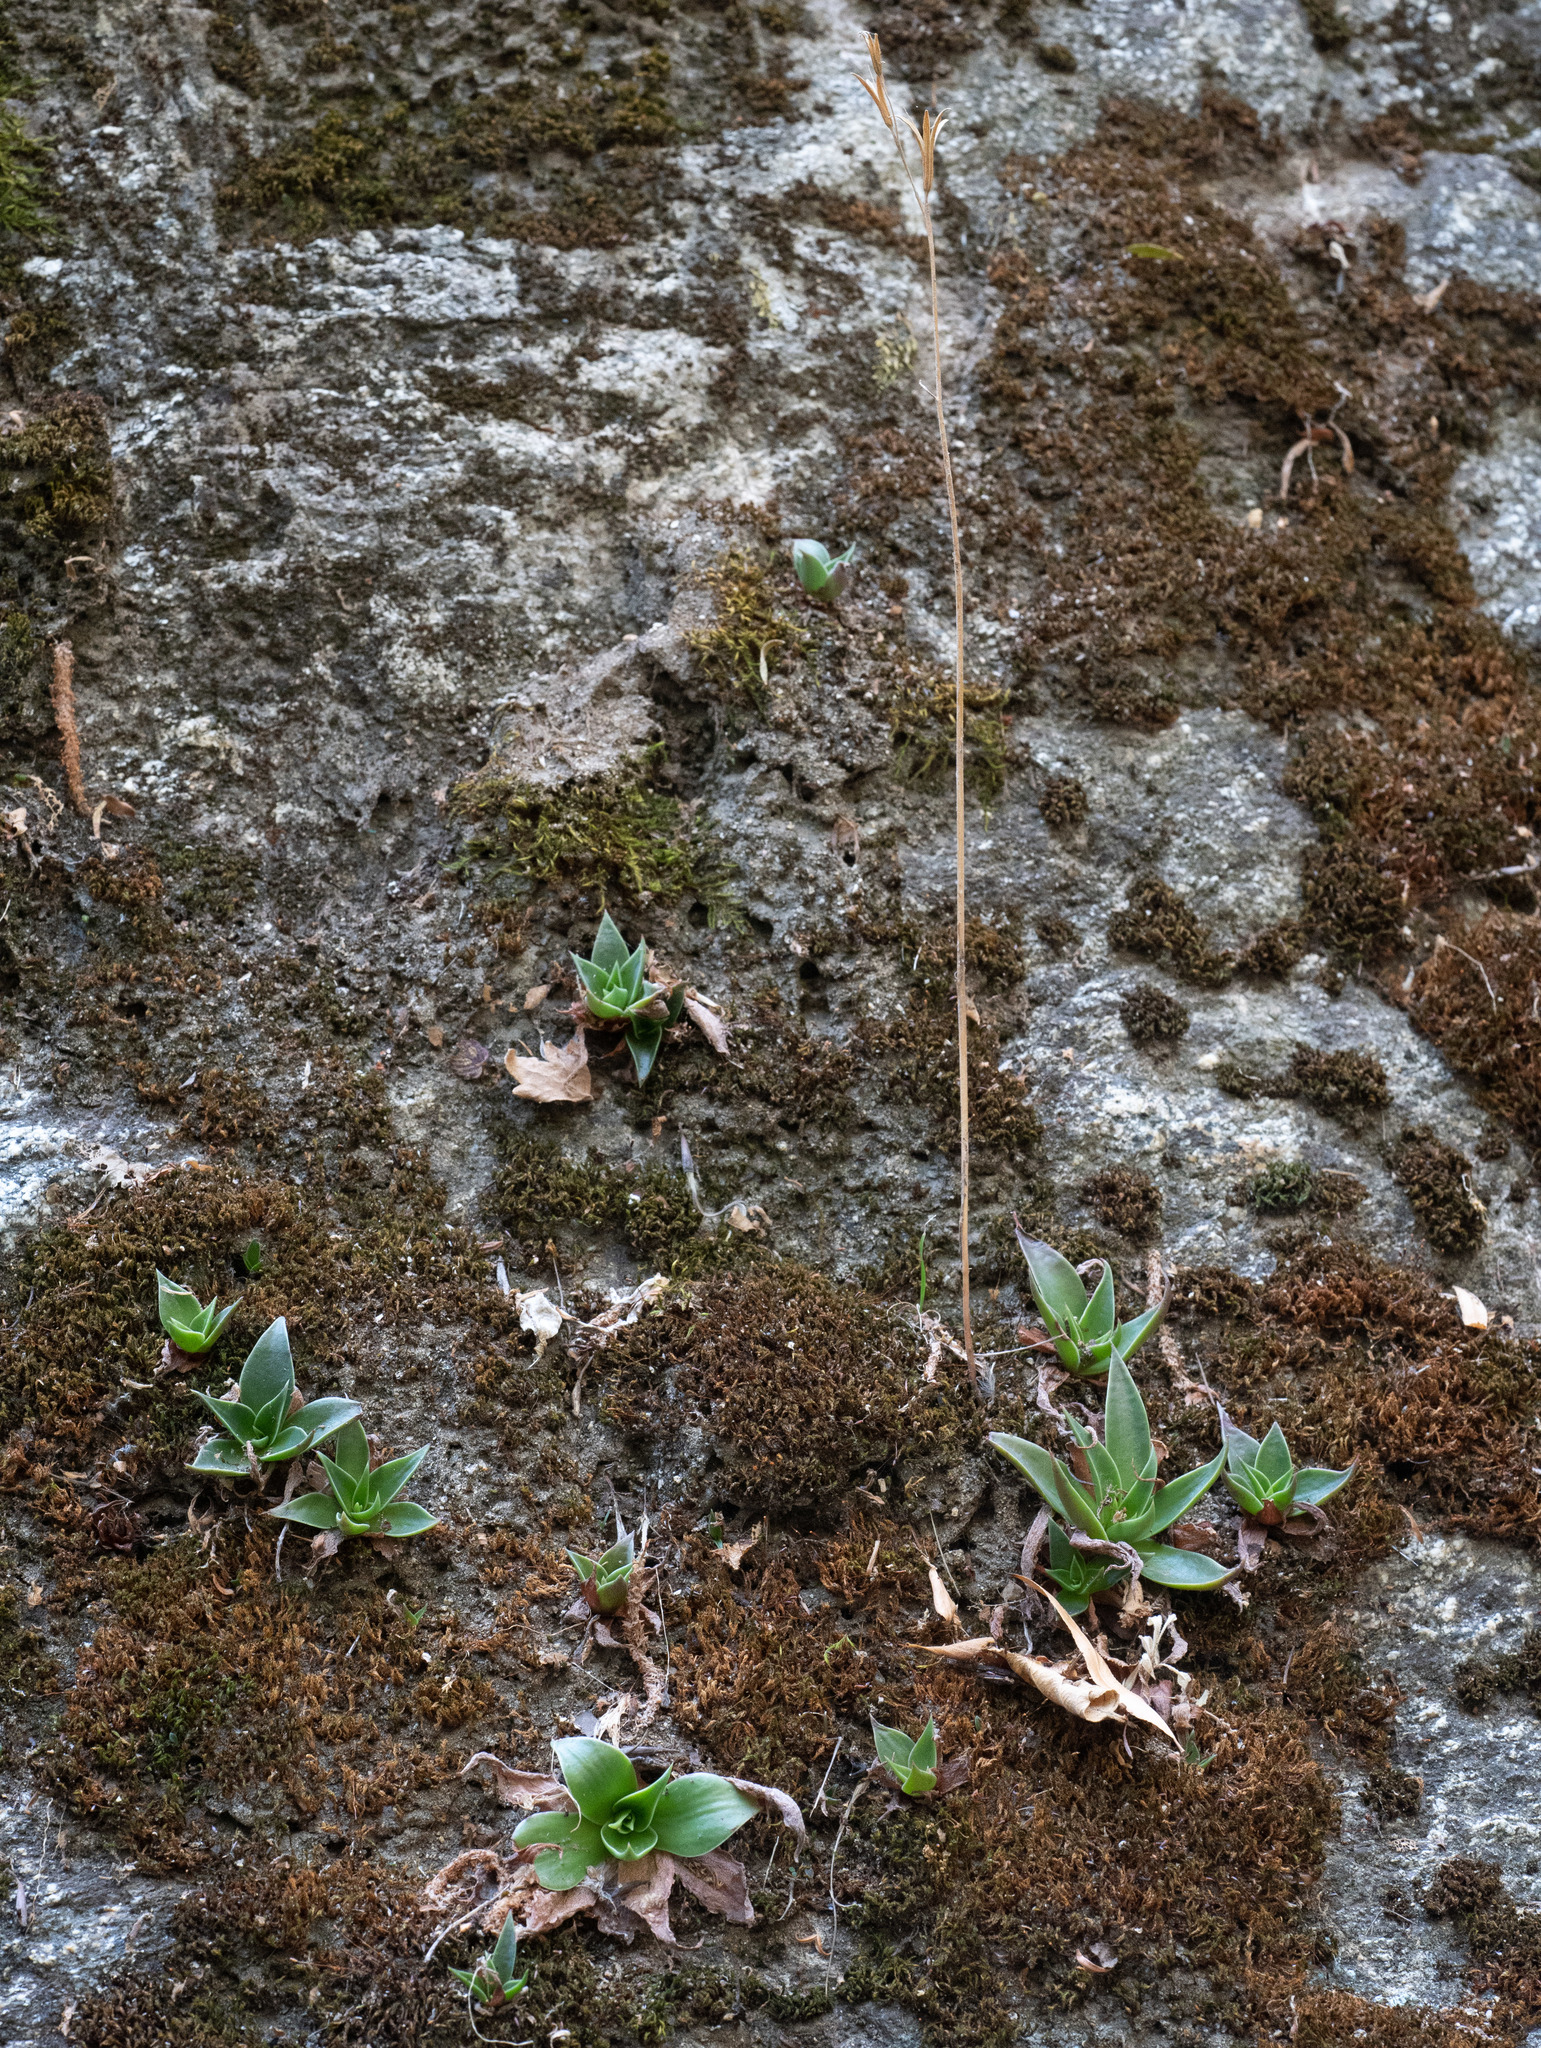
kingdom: Plantae
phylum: Tracheophyta
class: Magnoliopsida
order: Saxifragales
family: Crassulaceae
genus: Dudleya
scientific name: Dudleya cymosa
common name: Canyon dudleya
